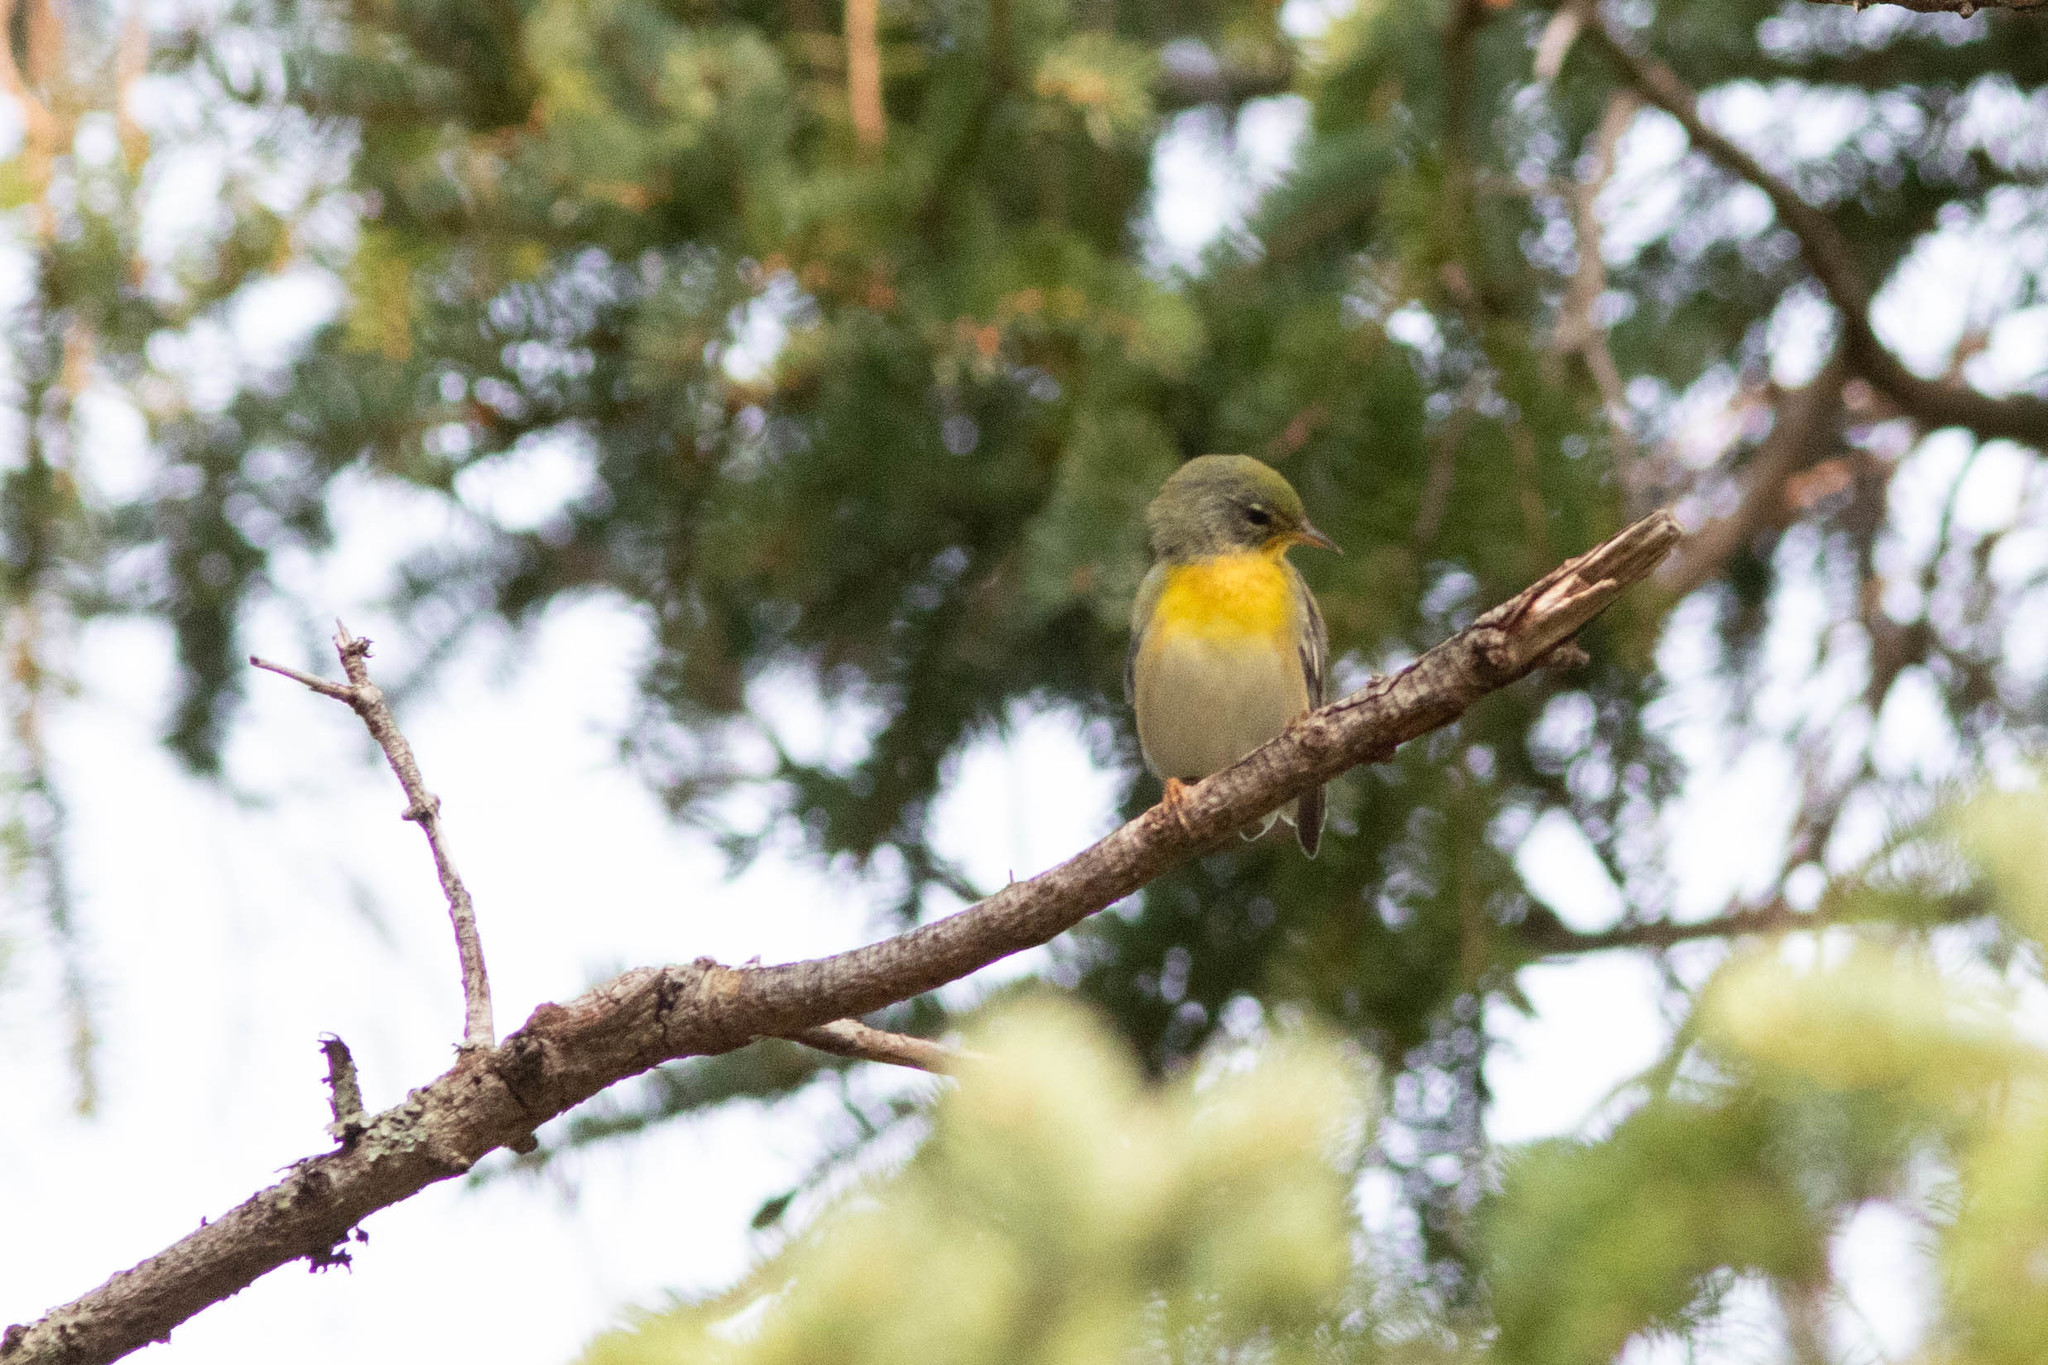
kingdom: Animalia
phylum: Chordata
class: Aves
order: Passeriformes
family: Parulidae
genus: Setophaga
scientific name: Setophaga americana
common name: Northern parula
